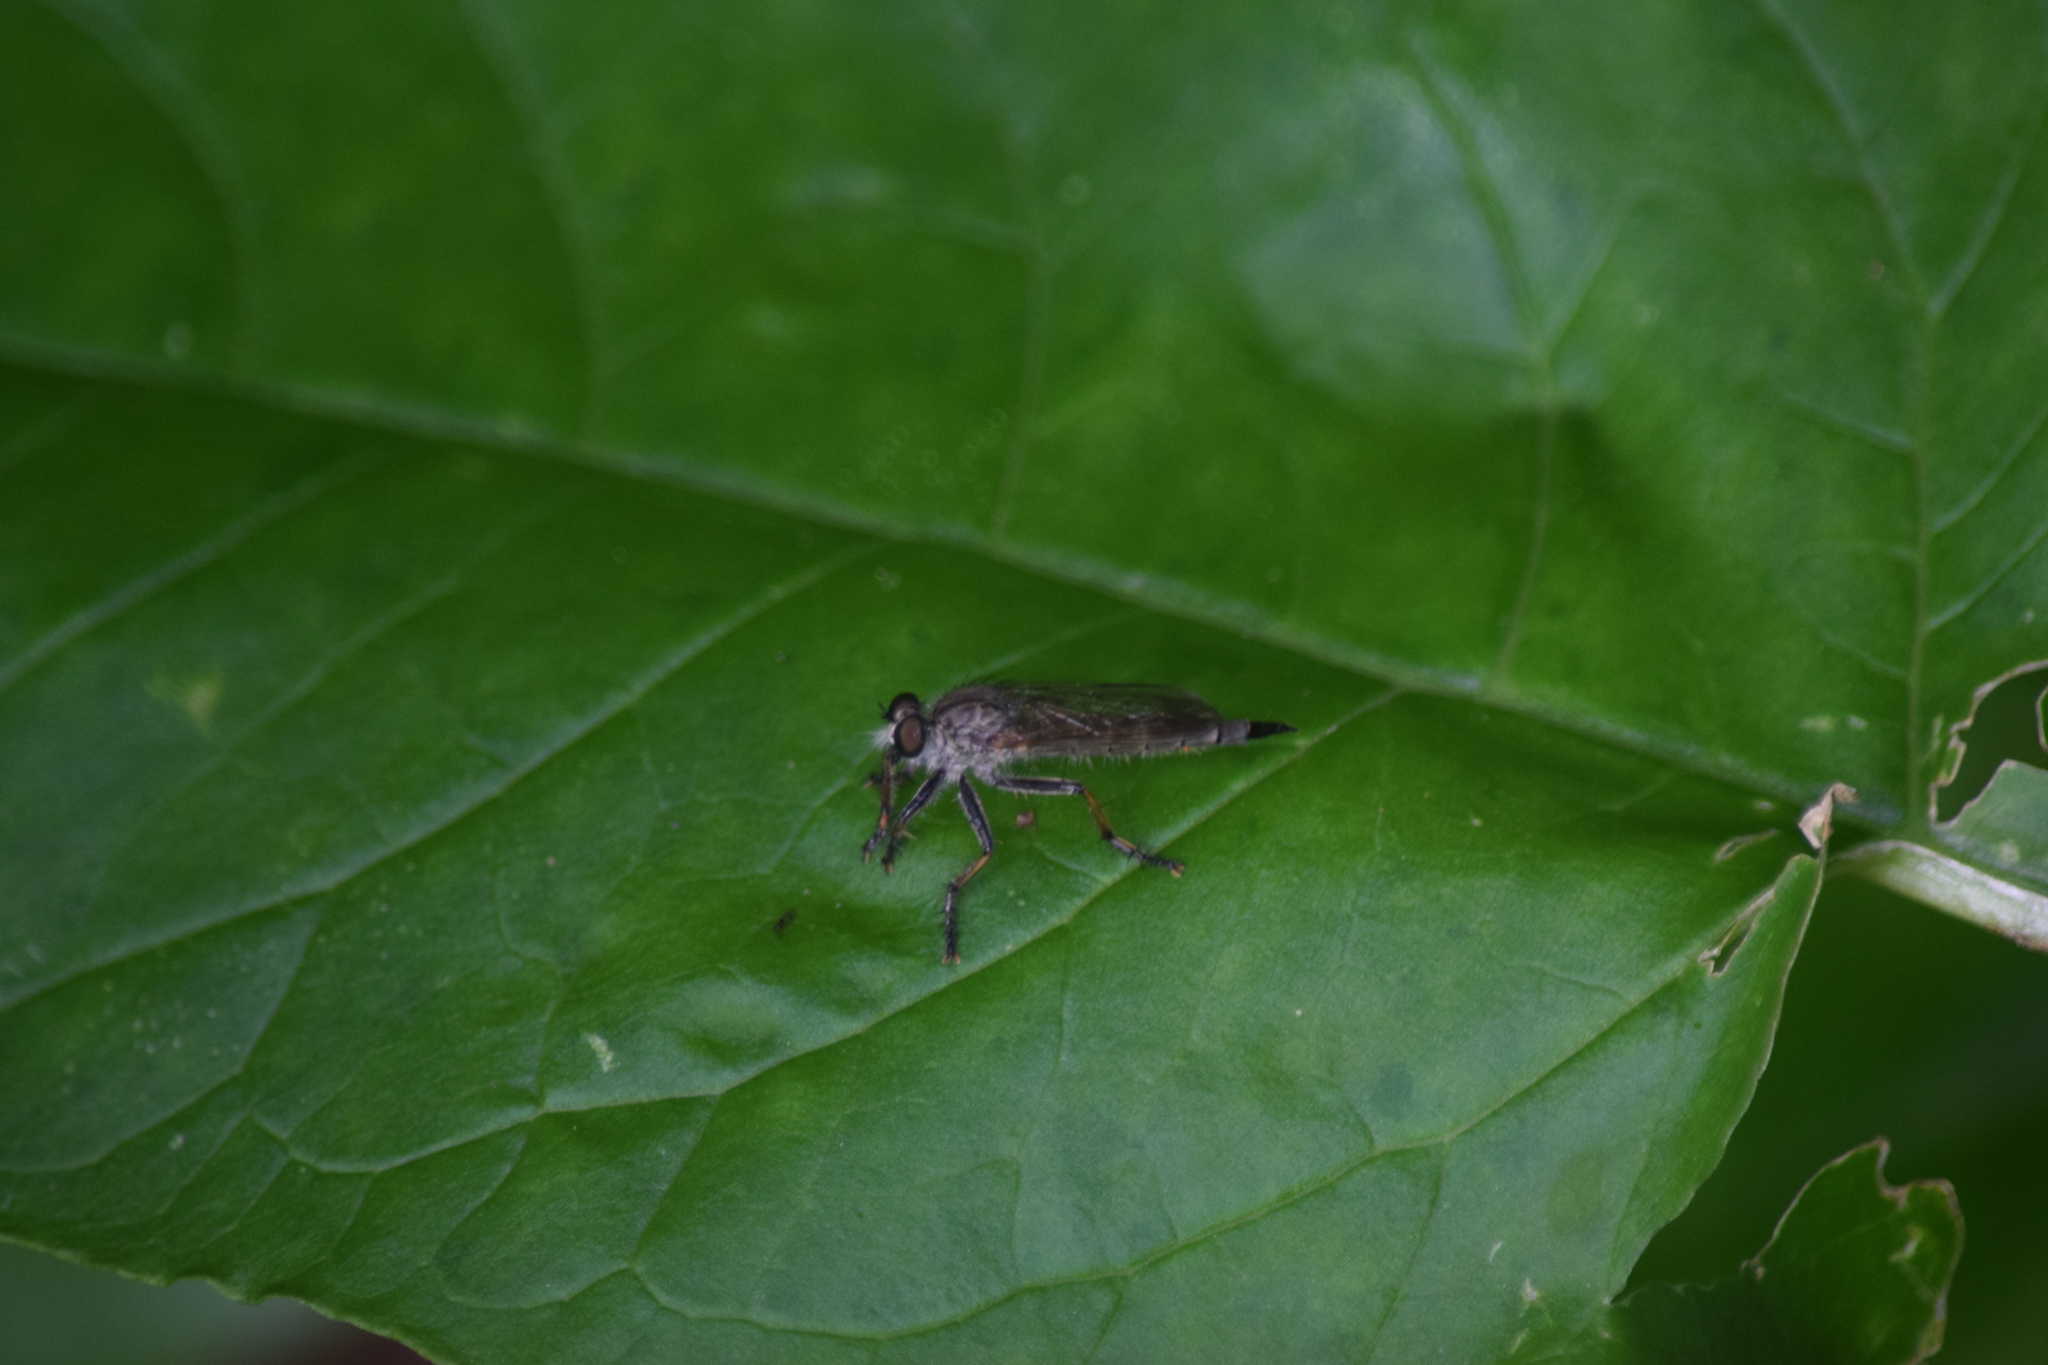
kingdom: Animalia
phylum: Arthropoda
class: Insecta
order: Diptera
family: Asilidae
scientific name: Asilidae
